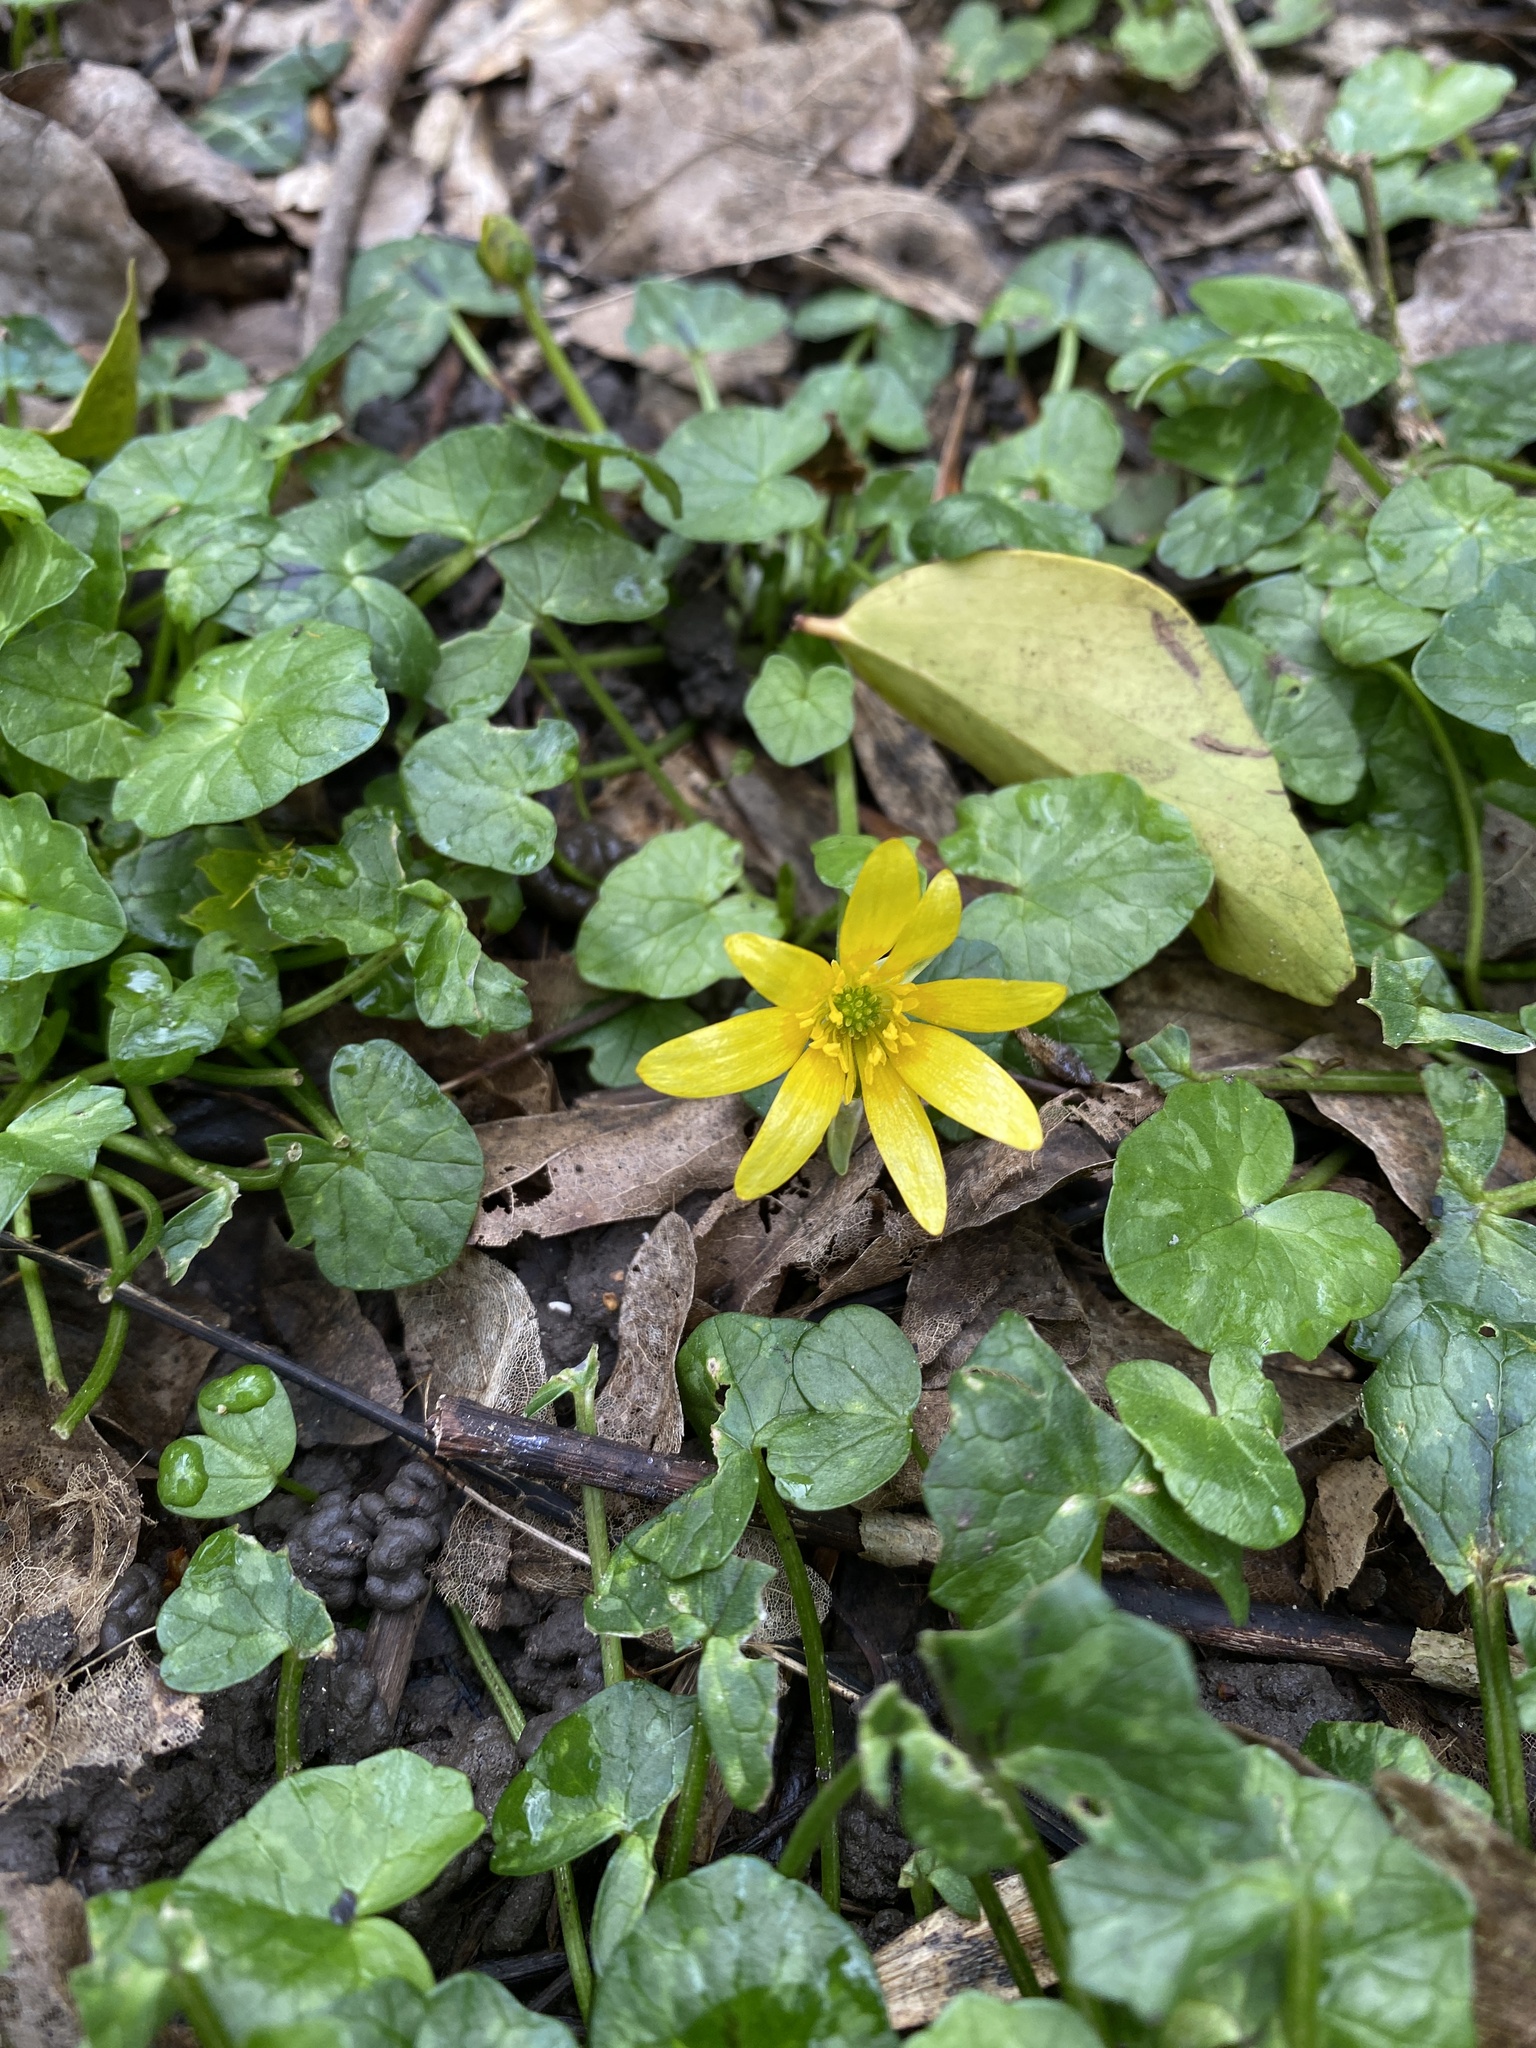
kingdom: Plantae
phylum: Tracheophyta
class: Magnoliopsida
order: Ranunculales
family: Ranunculaceae
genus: Ficaria
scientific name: Ficaria verna
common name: Lesser celandine
